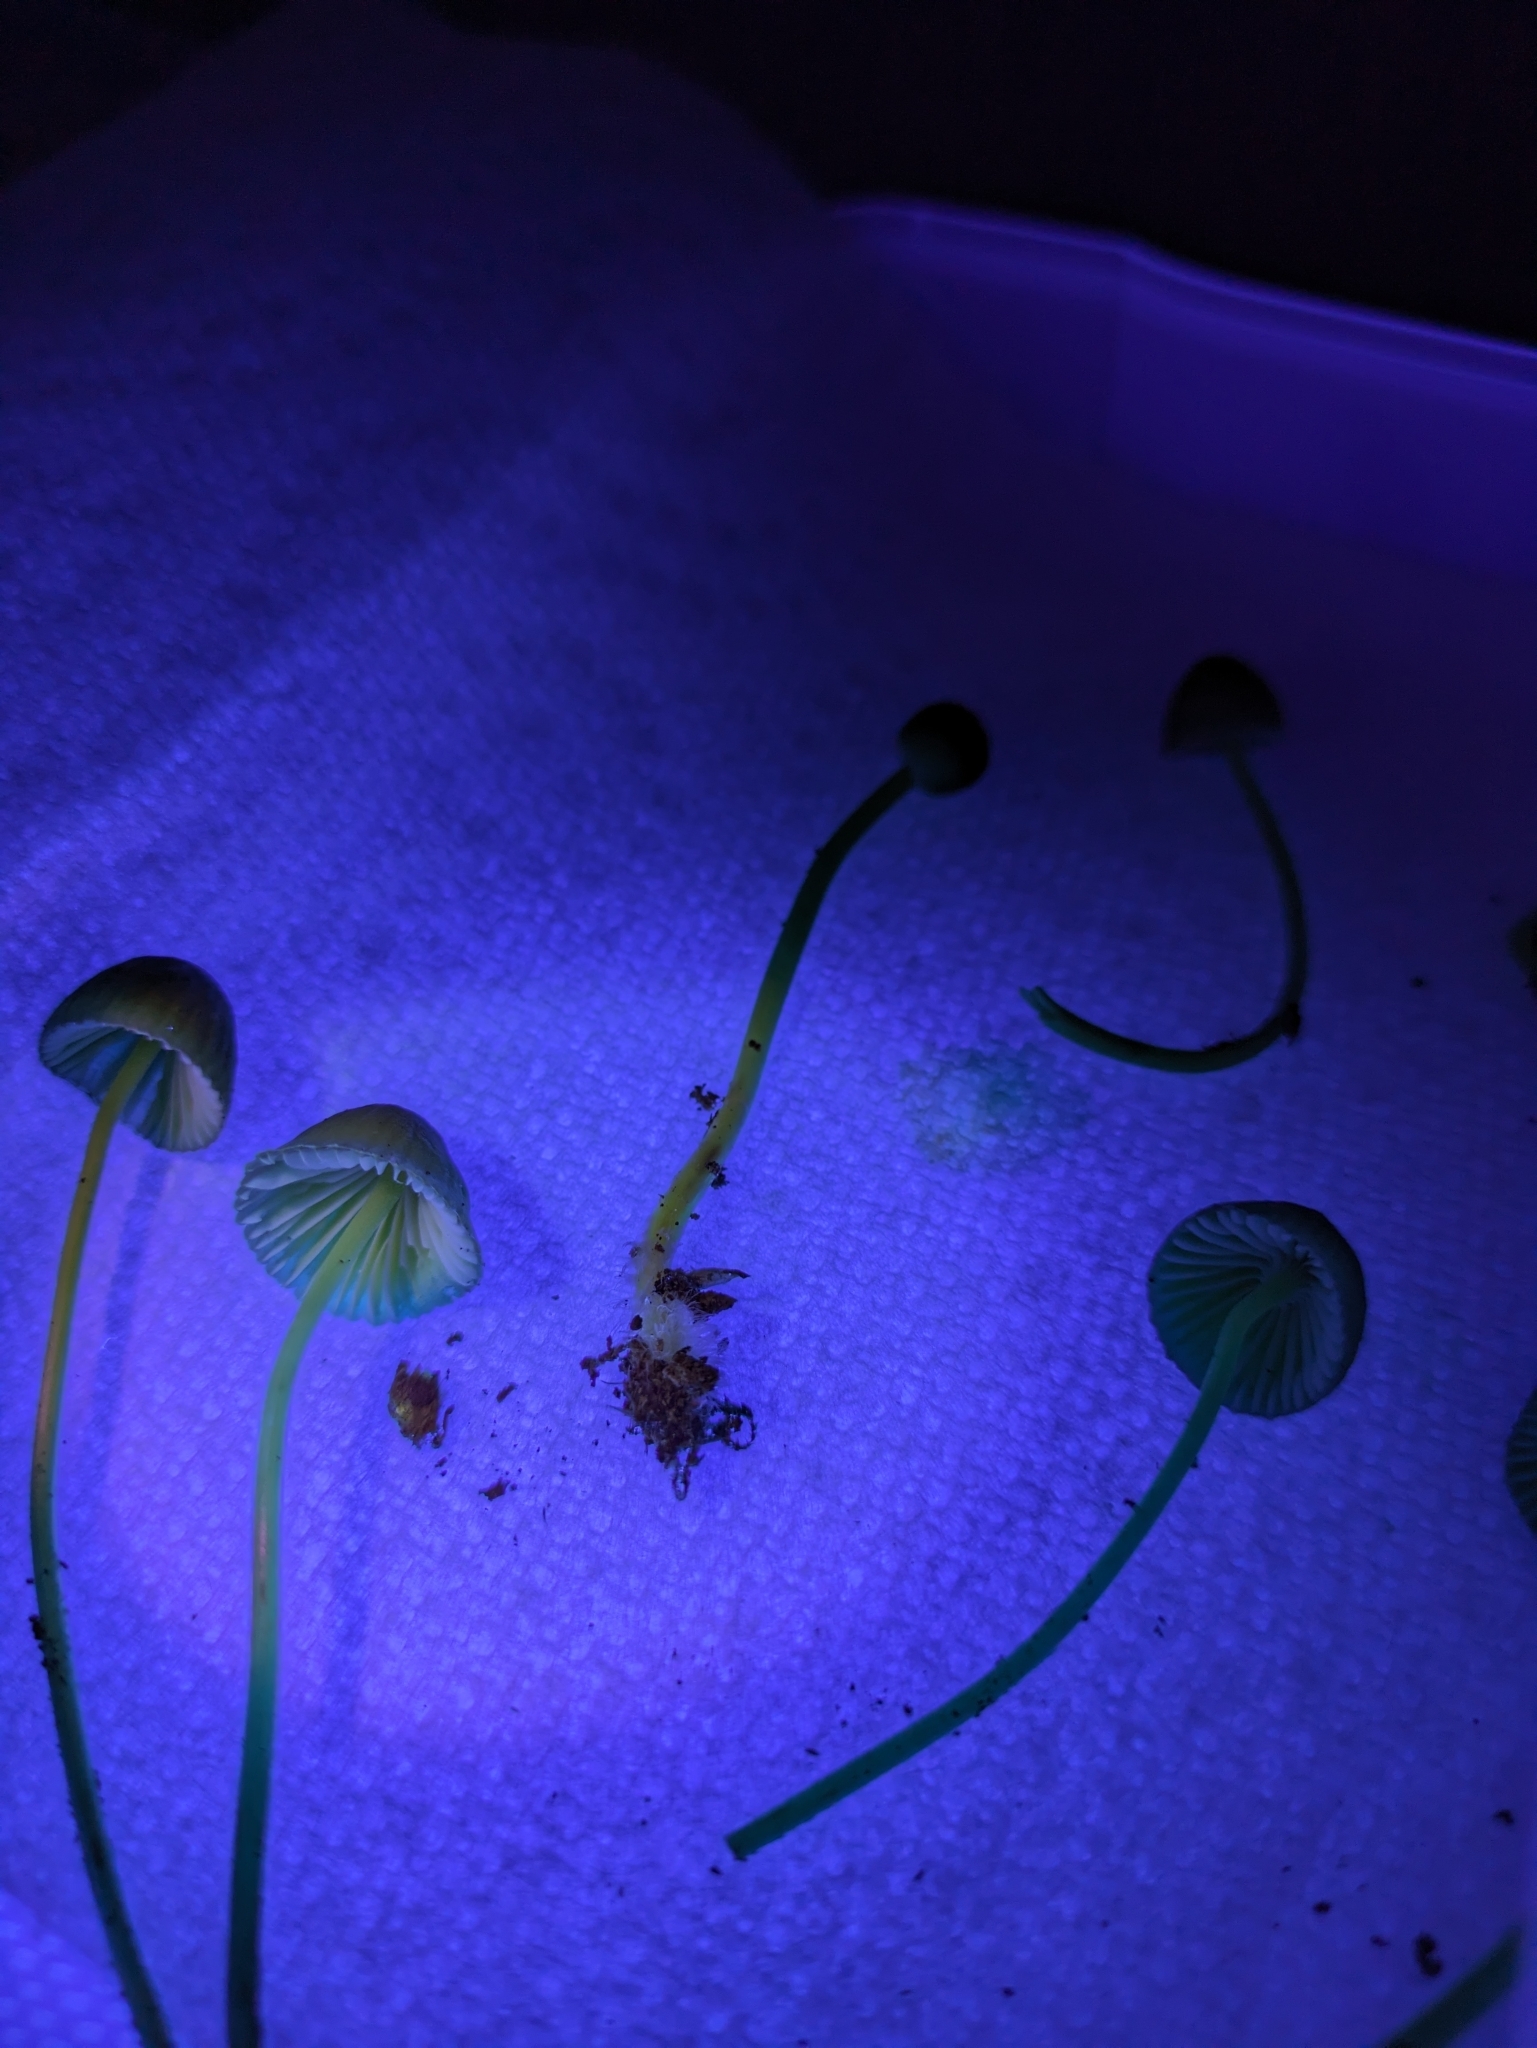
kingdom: Fungi
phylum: Basidiomycota
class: Agaricomycetes
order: Agaricales
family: Mycenaceae
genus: Mycena
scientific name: Mycena epipterygia
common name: Yellowleg bonnet
